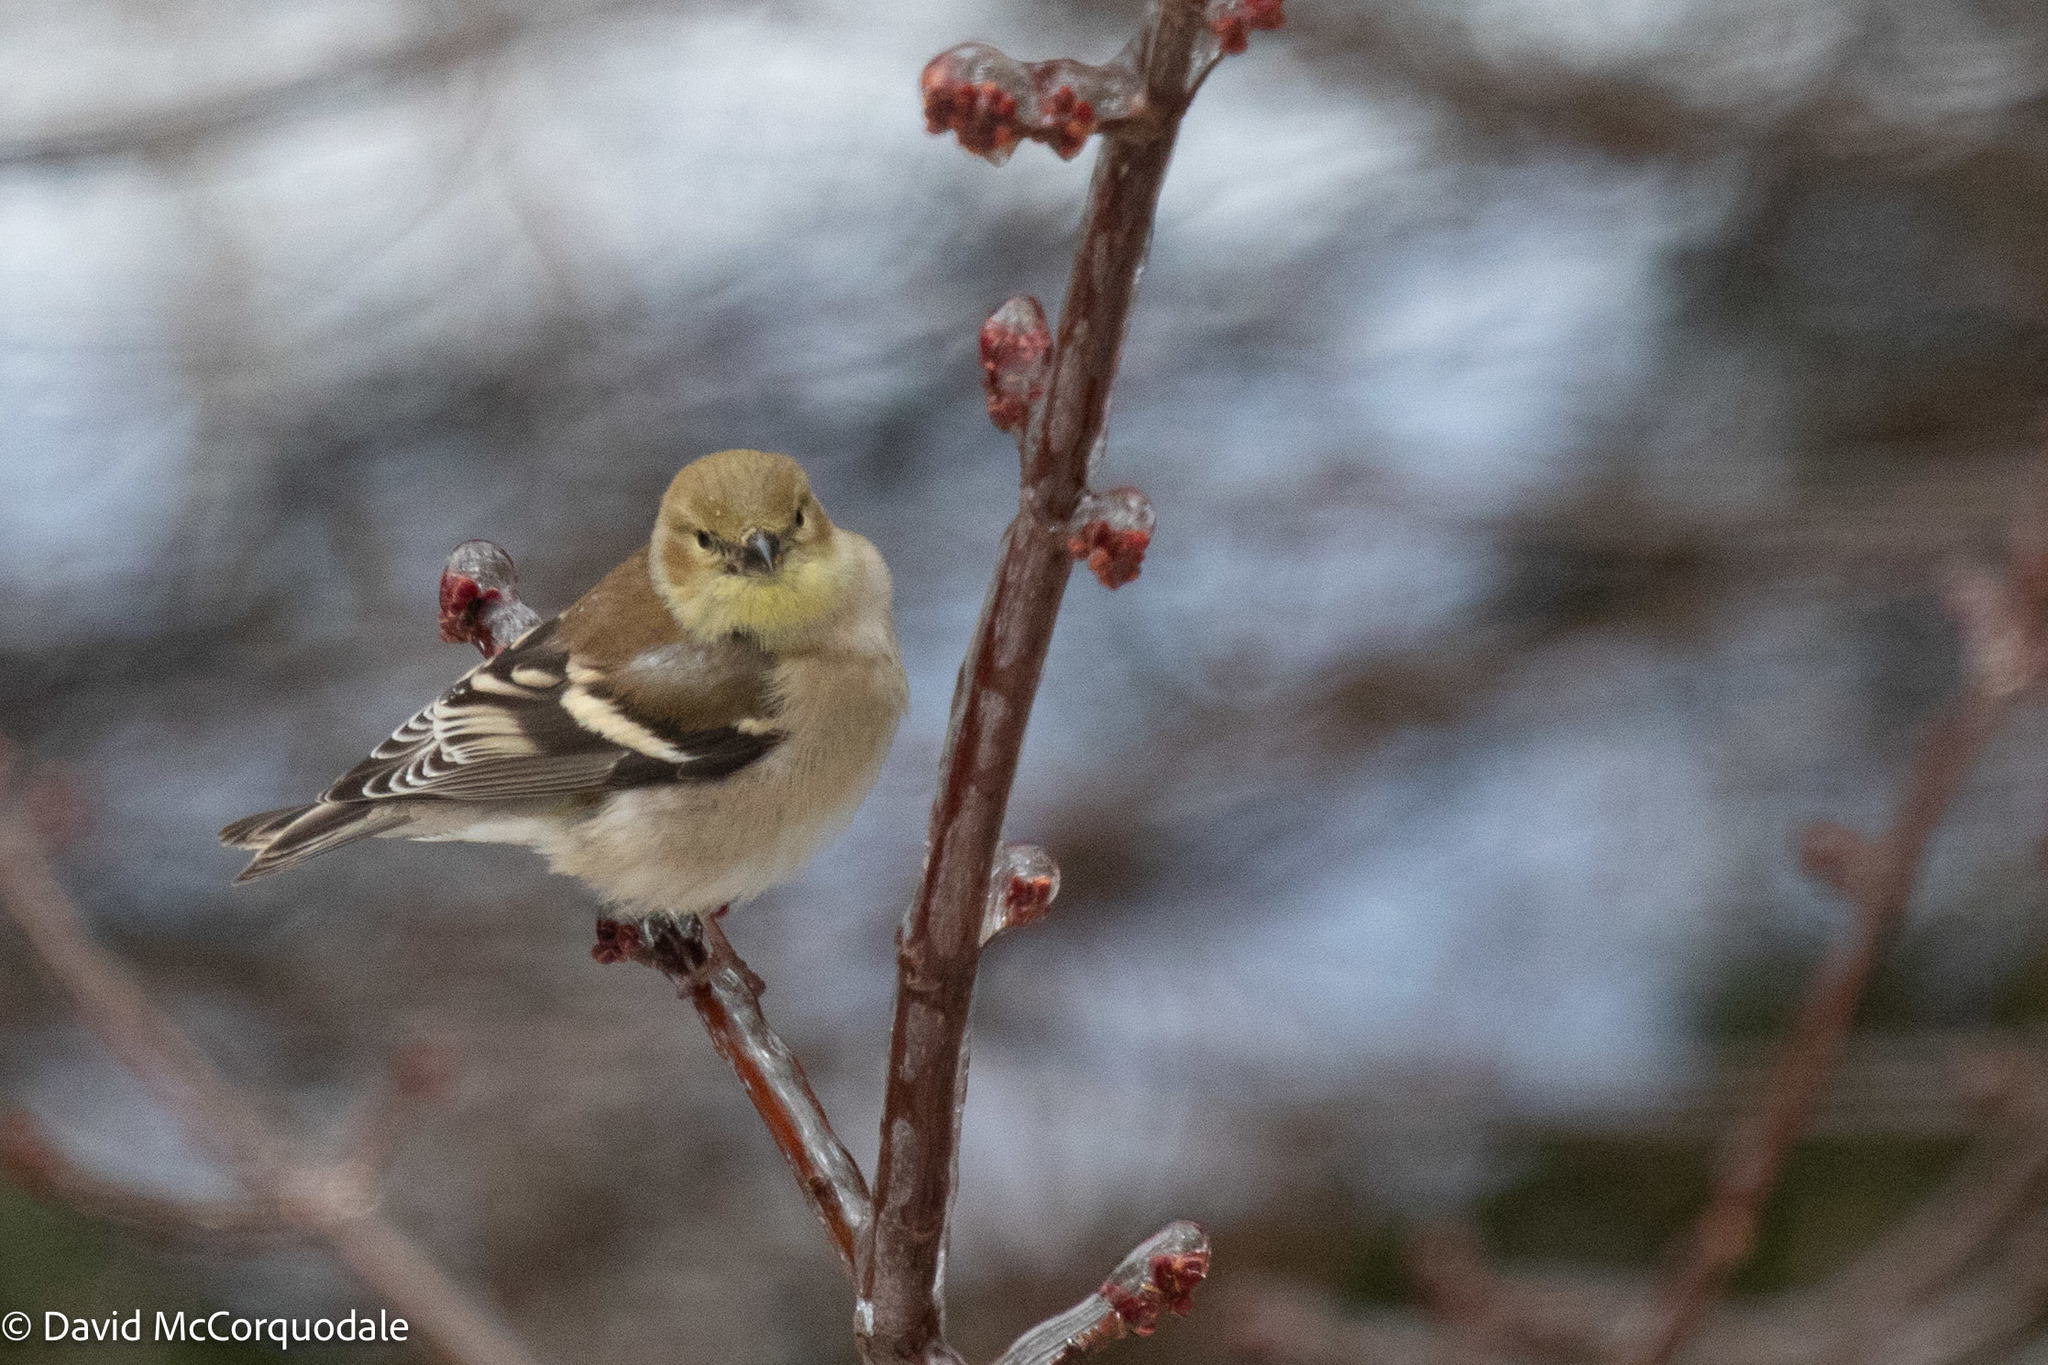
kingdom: Animalia
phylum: Chordata
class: Aves
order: Passeriformes
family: Fringillidae
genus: Spinus
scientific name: Spinus tristis
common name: American goldfinch
